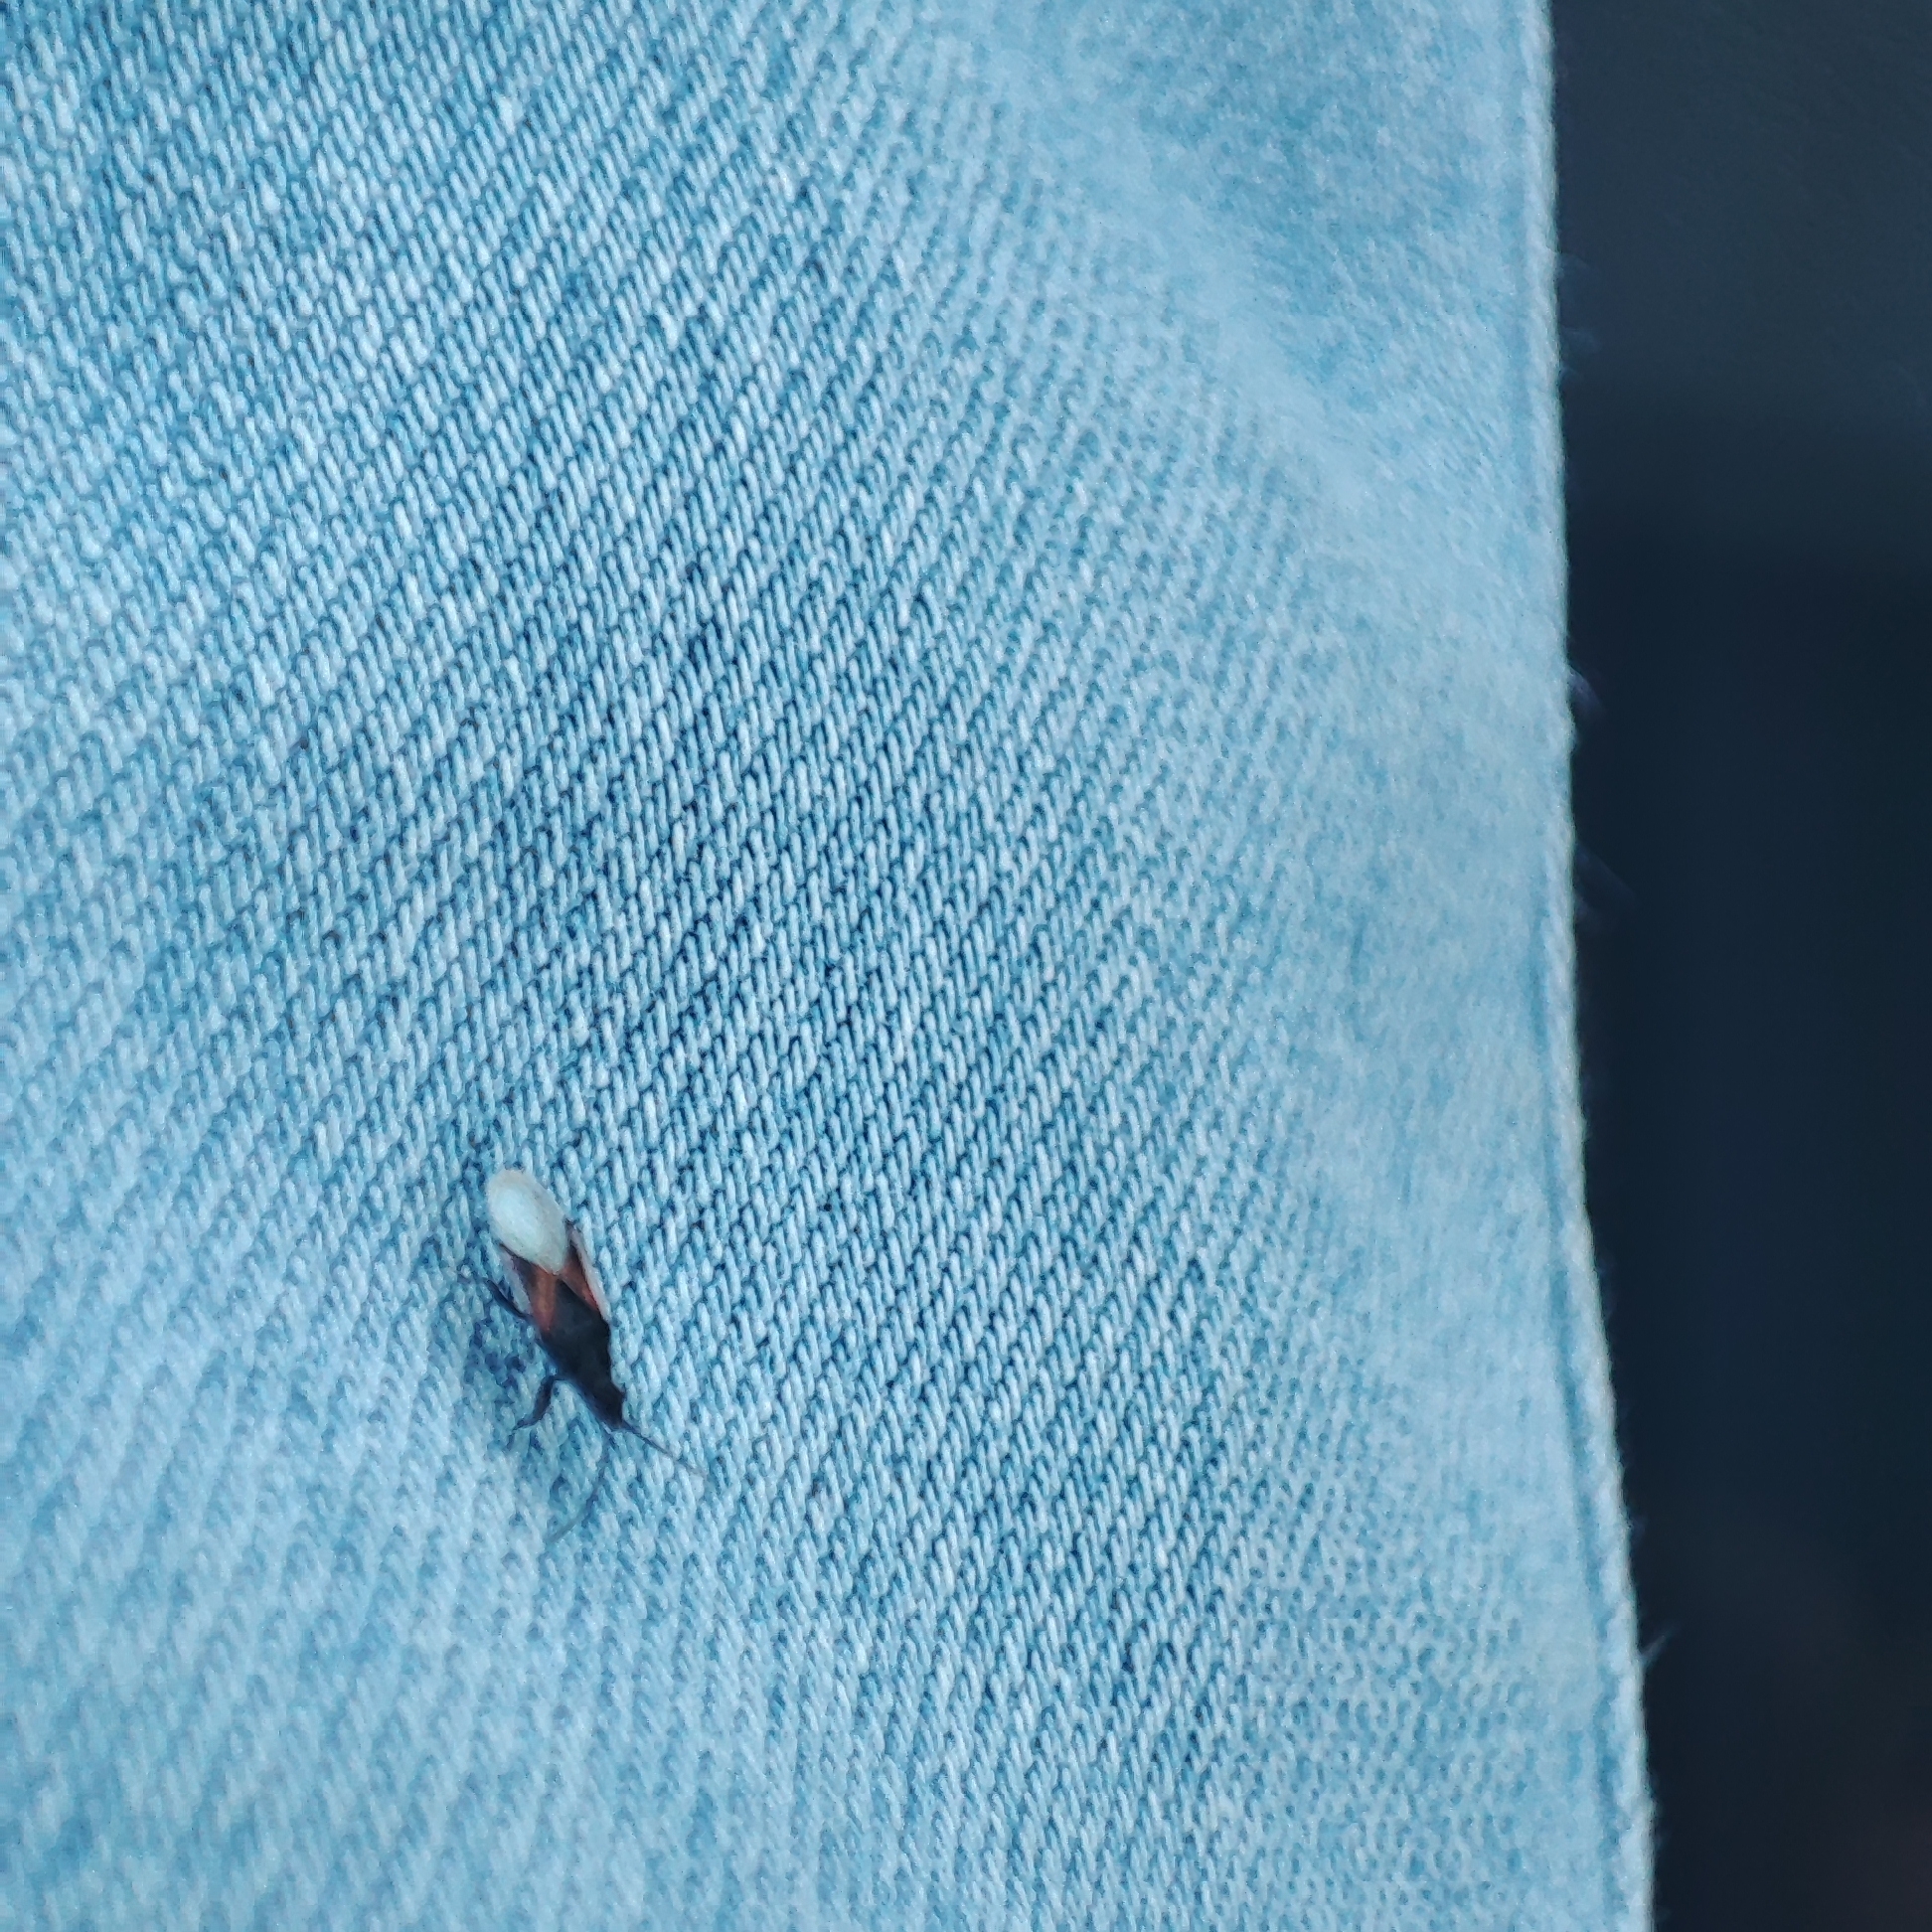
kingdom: Animalia
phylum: Arthropoda
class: Insecta
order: Hemiptera
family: Oxycarenidae
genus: Oxycarenus
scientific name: Oxycarenus lavaterae
